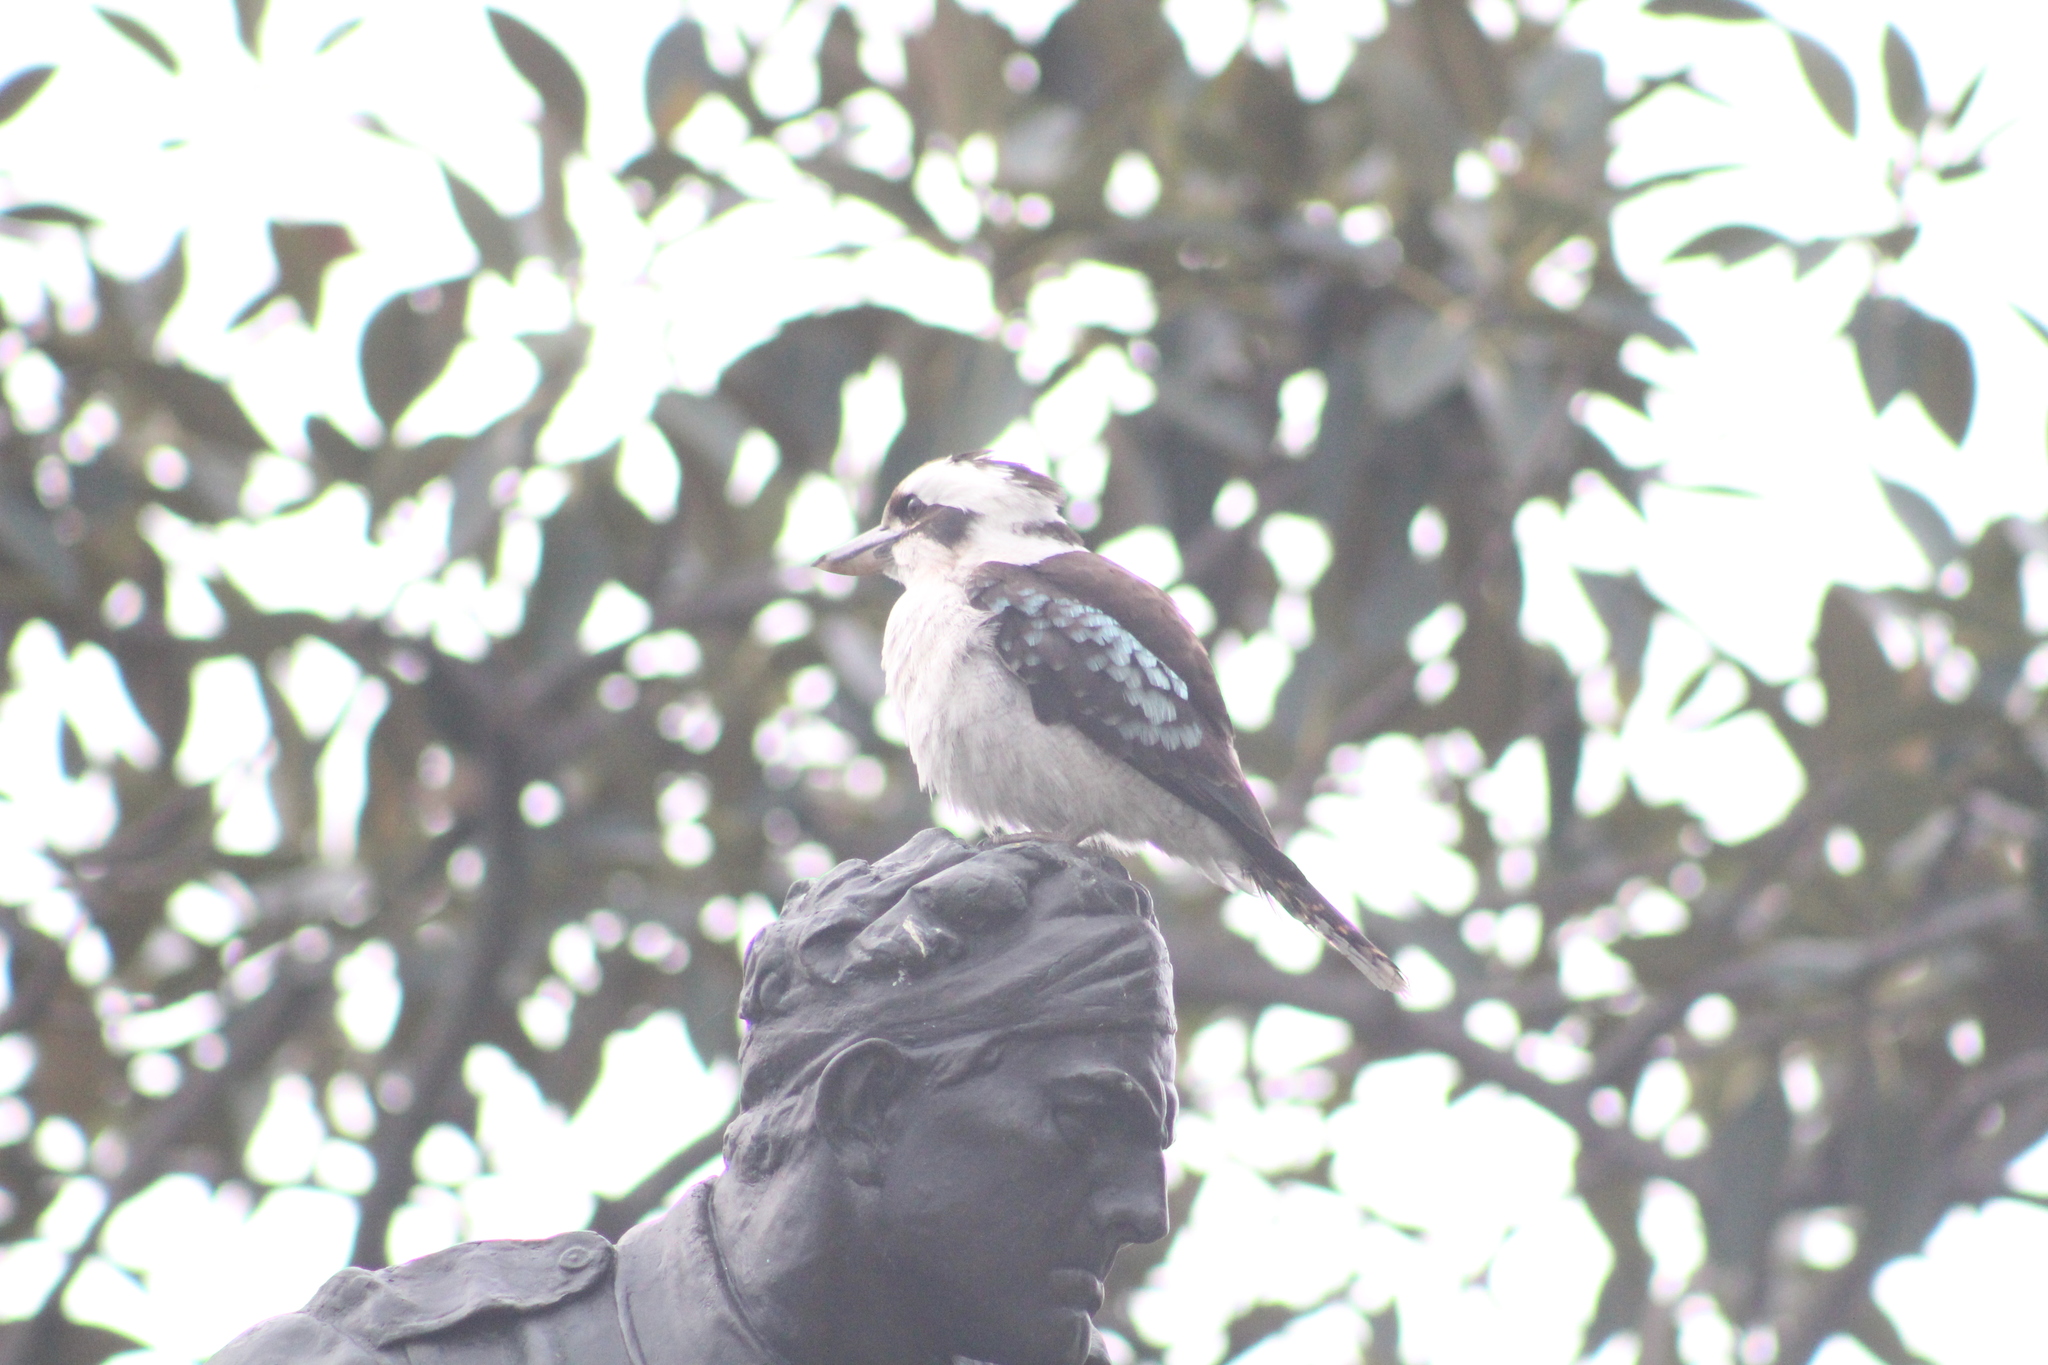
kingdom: Animalia
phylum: Chordata
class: Aves
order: Coraciiformes
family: Alcedinidae
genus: Dacelo
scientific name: Dacelo novaeguineae
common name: Laughing kookaburra
